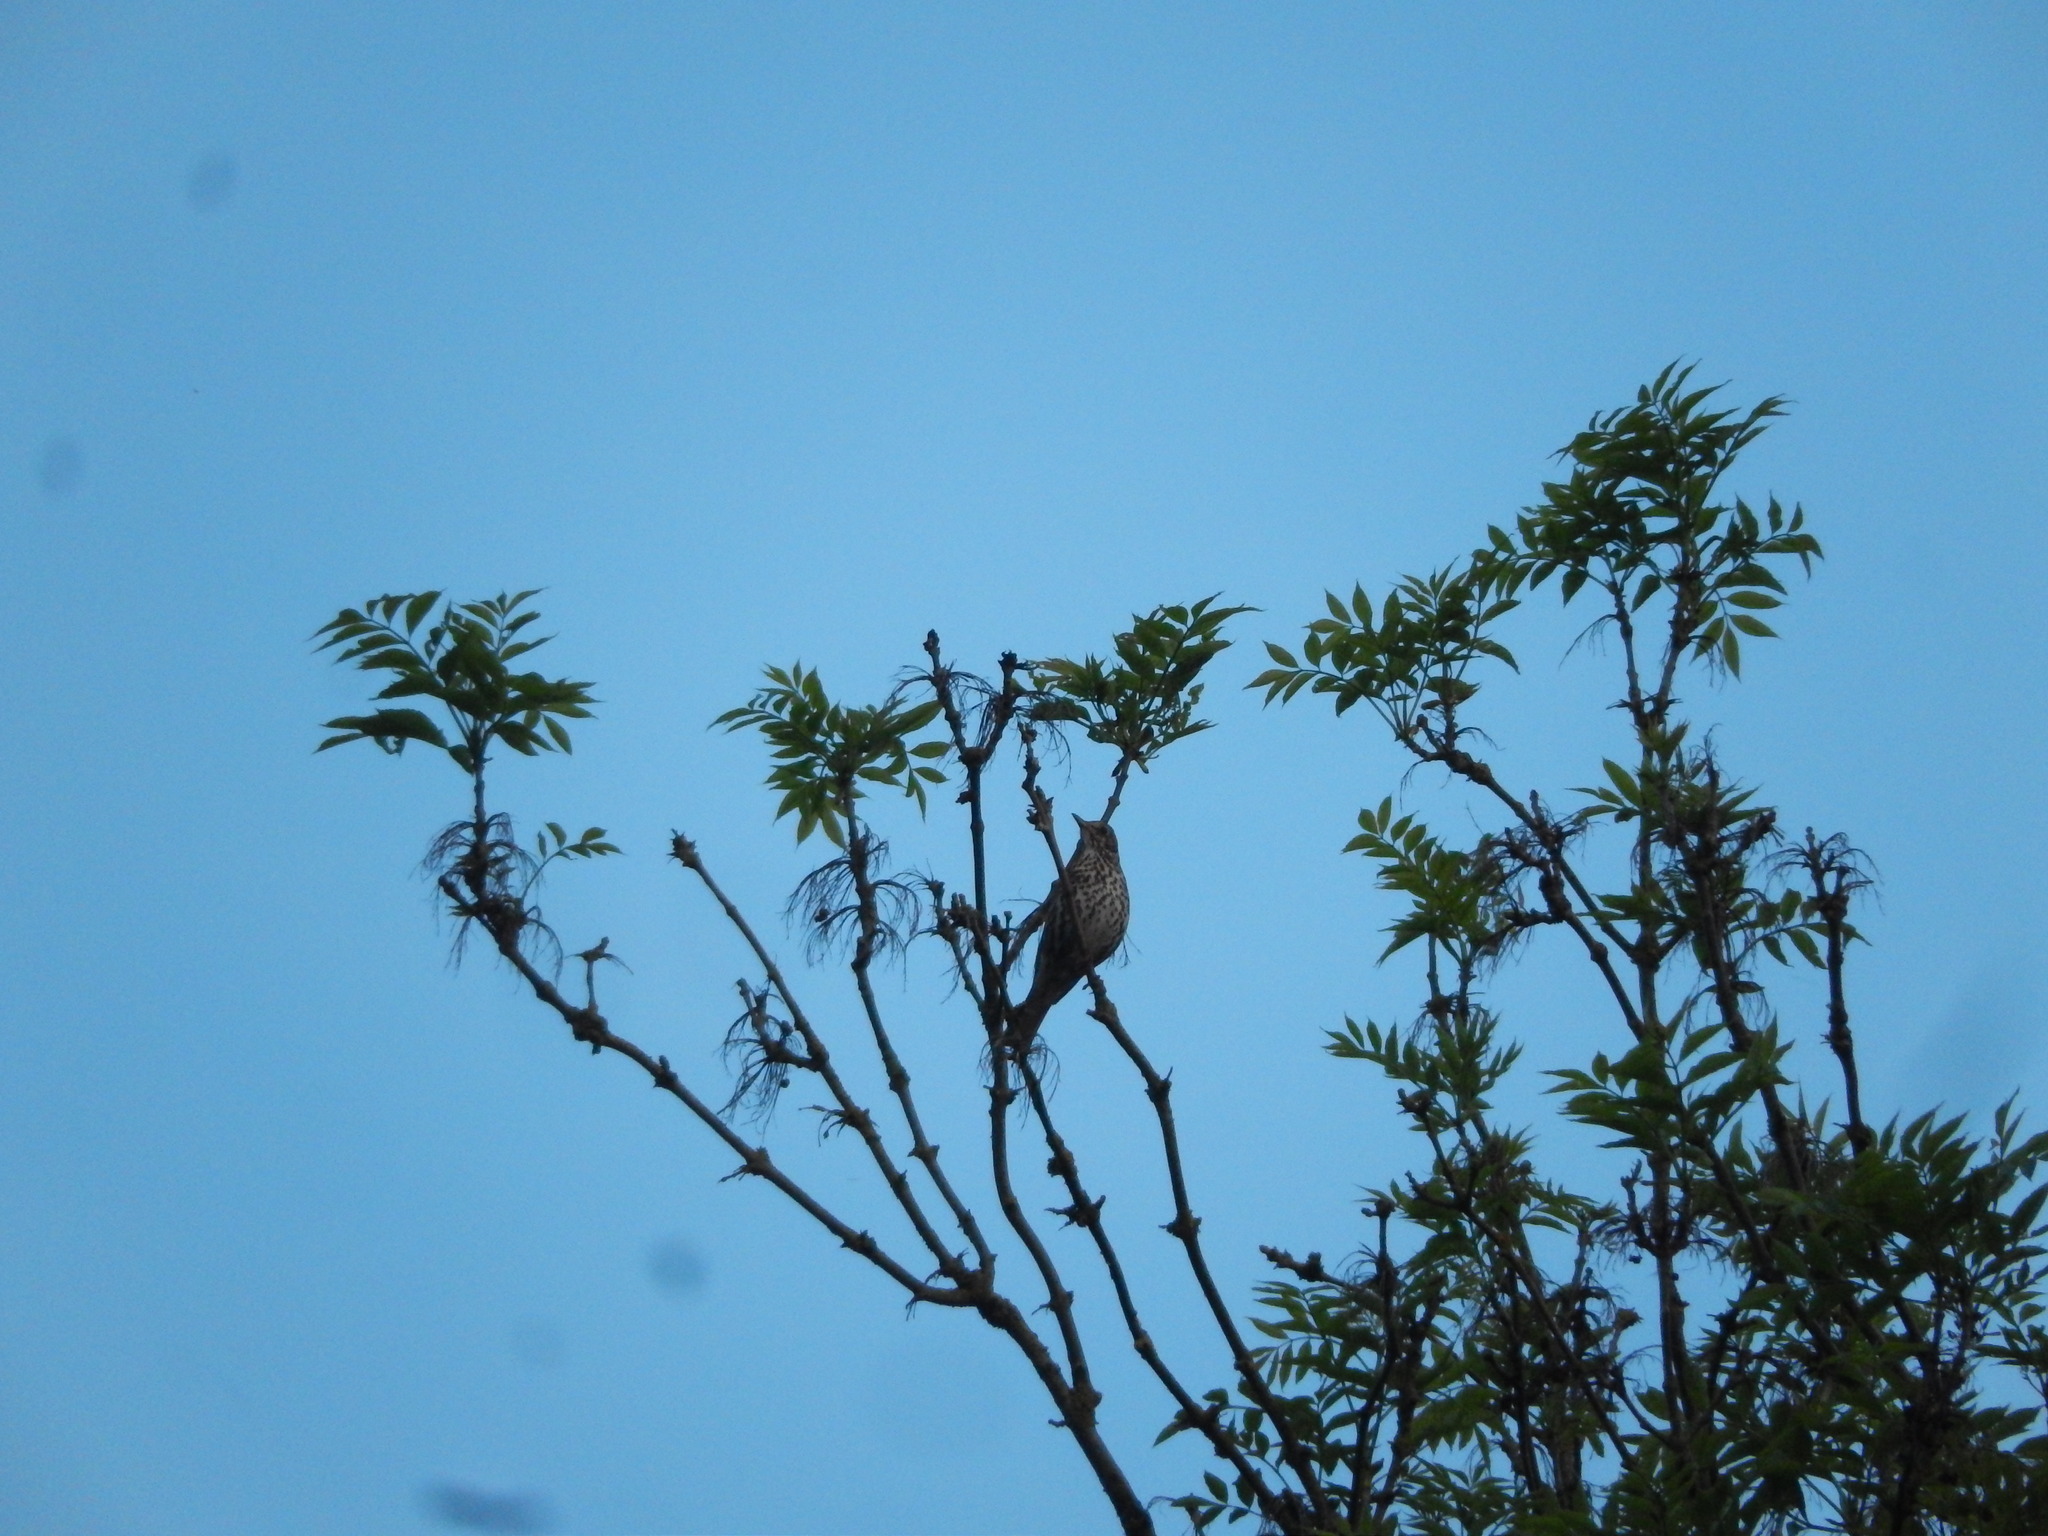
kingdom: Animalia
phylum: Chordata
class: Aves
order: Passeriformes
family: Turdidae
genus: Turdus
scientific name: Turdus philomelos
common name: Song thrush
